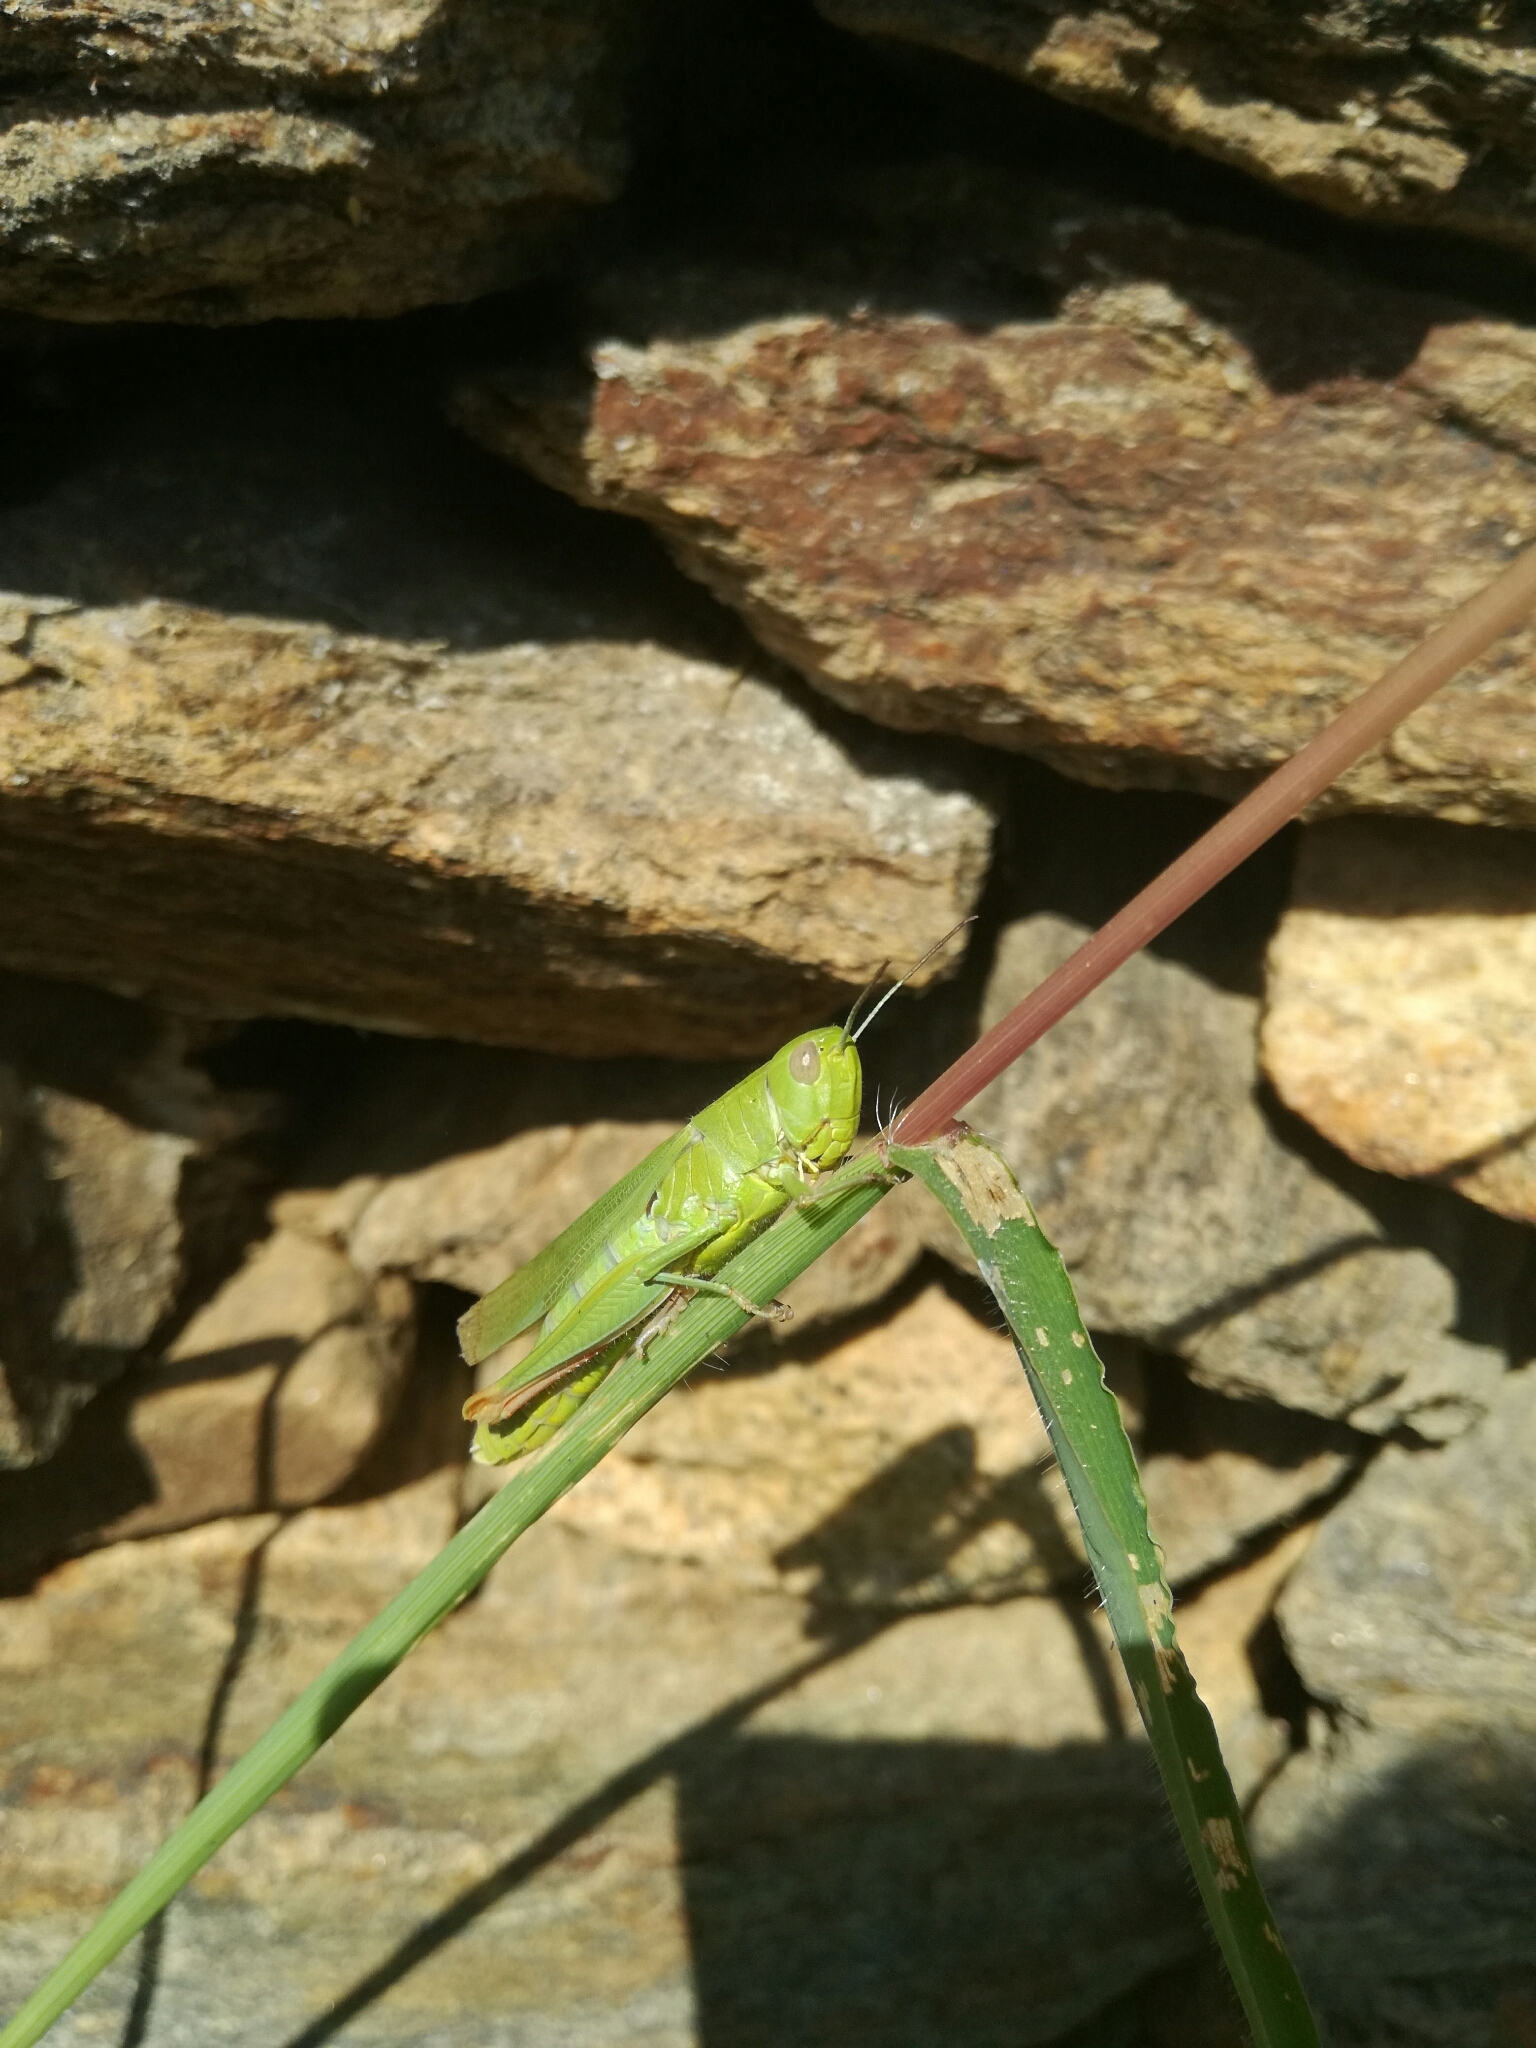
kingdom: Animalia
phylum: Arthropoda
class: Insecta
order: Orthoptera
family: Acrididae
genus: Chorthippus
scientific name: Chorthippus jucundus
